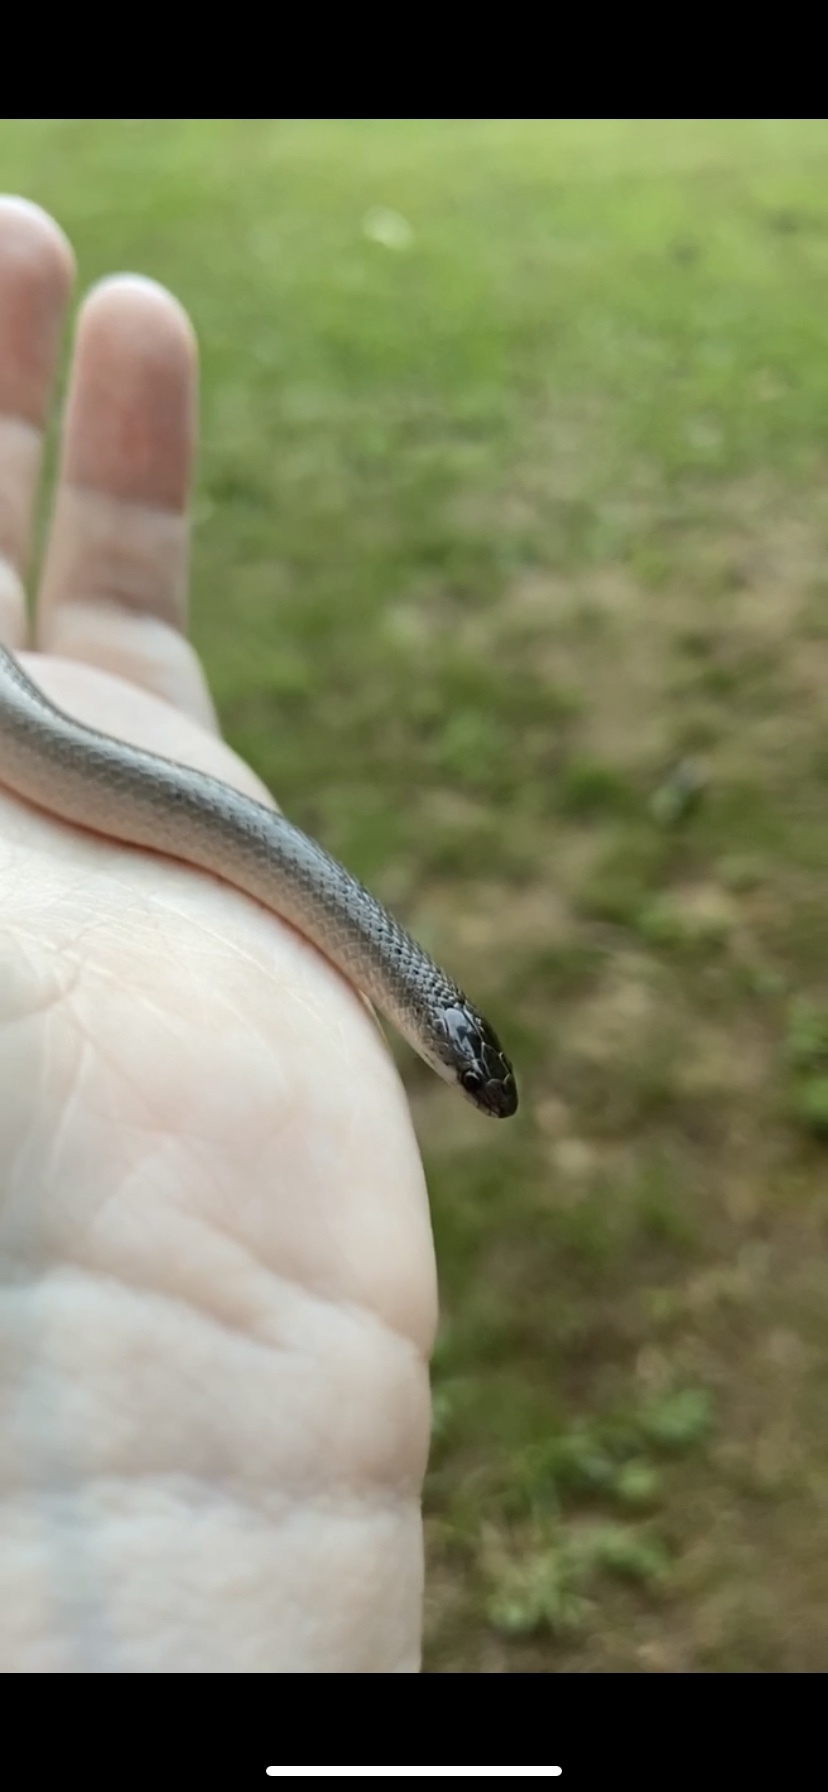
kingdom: Animalia
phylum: Chordata
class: Squamata
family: Colubridae
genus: Virginia
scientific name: Virginia valeriae
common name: Smooth earth snake
